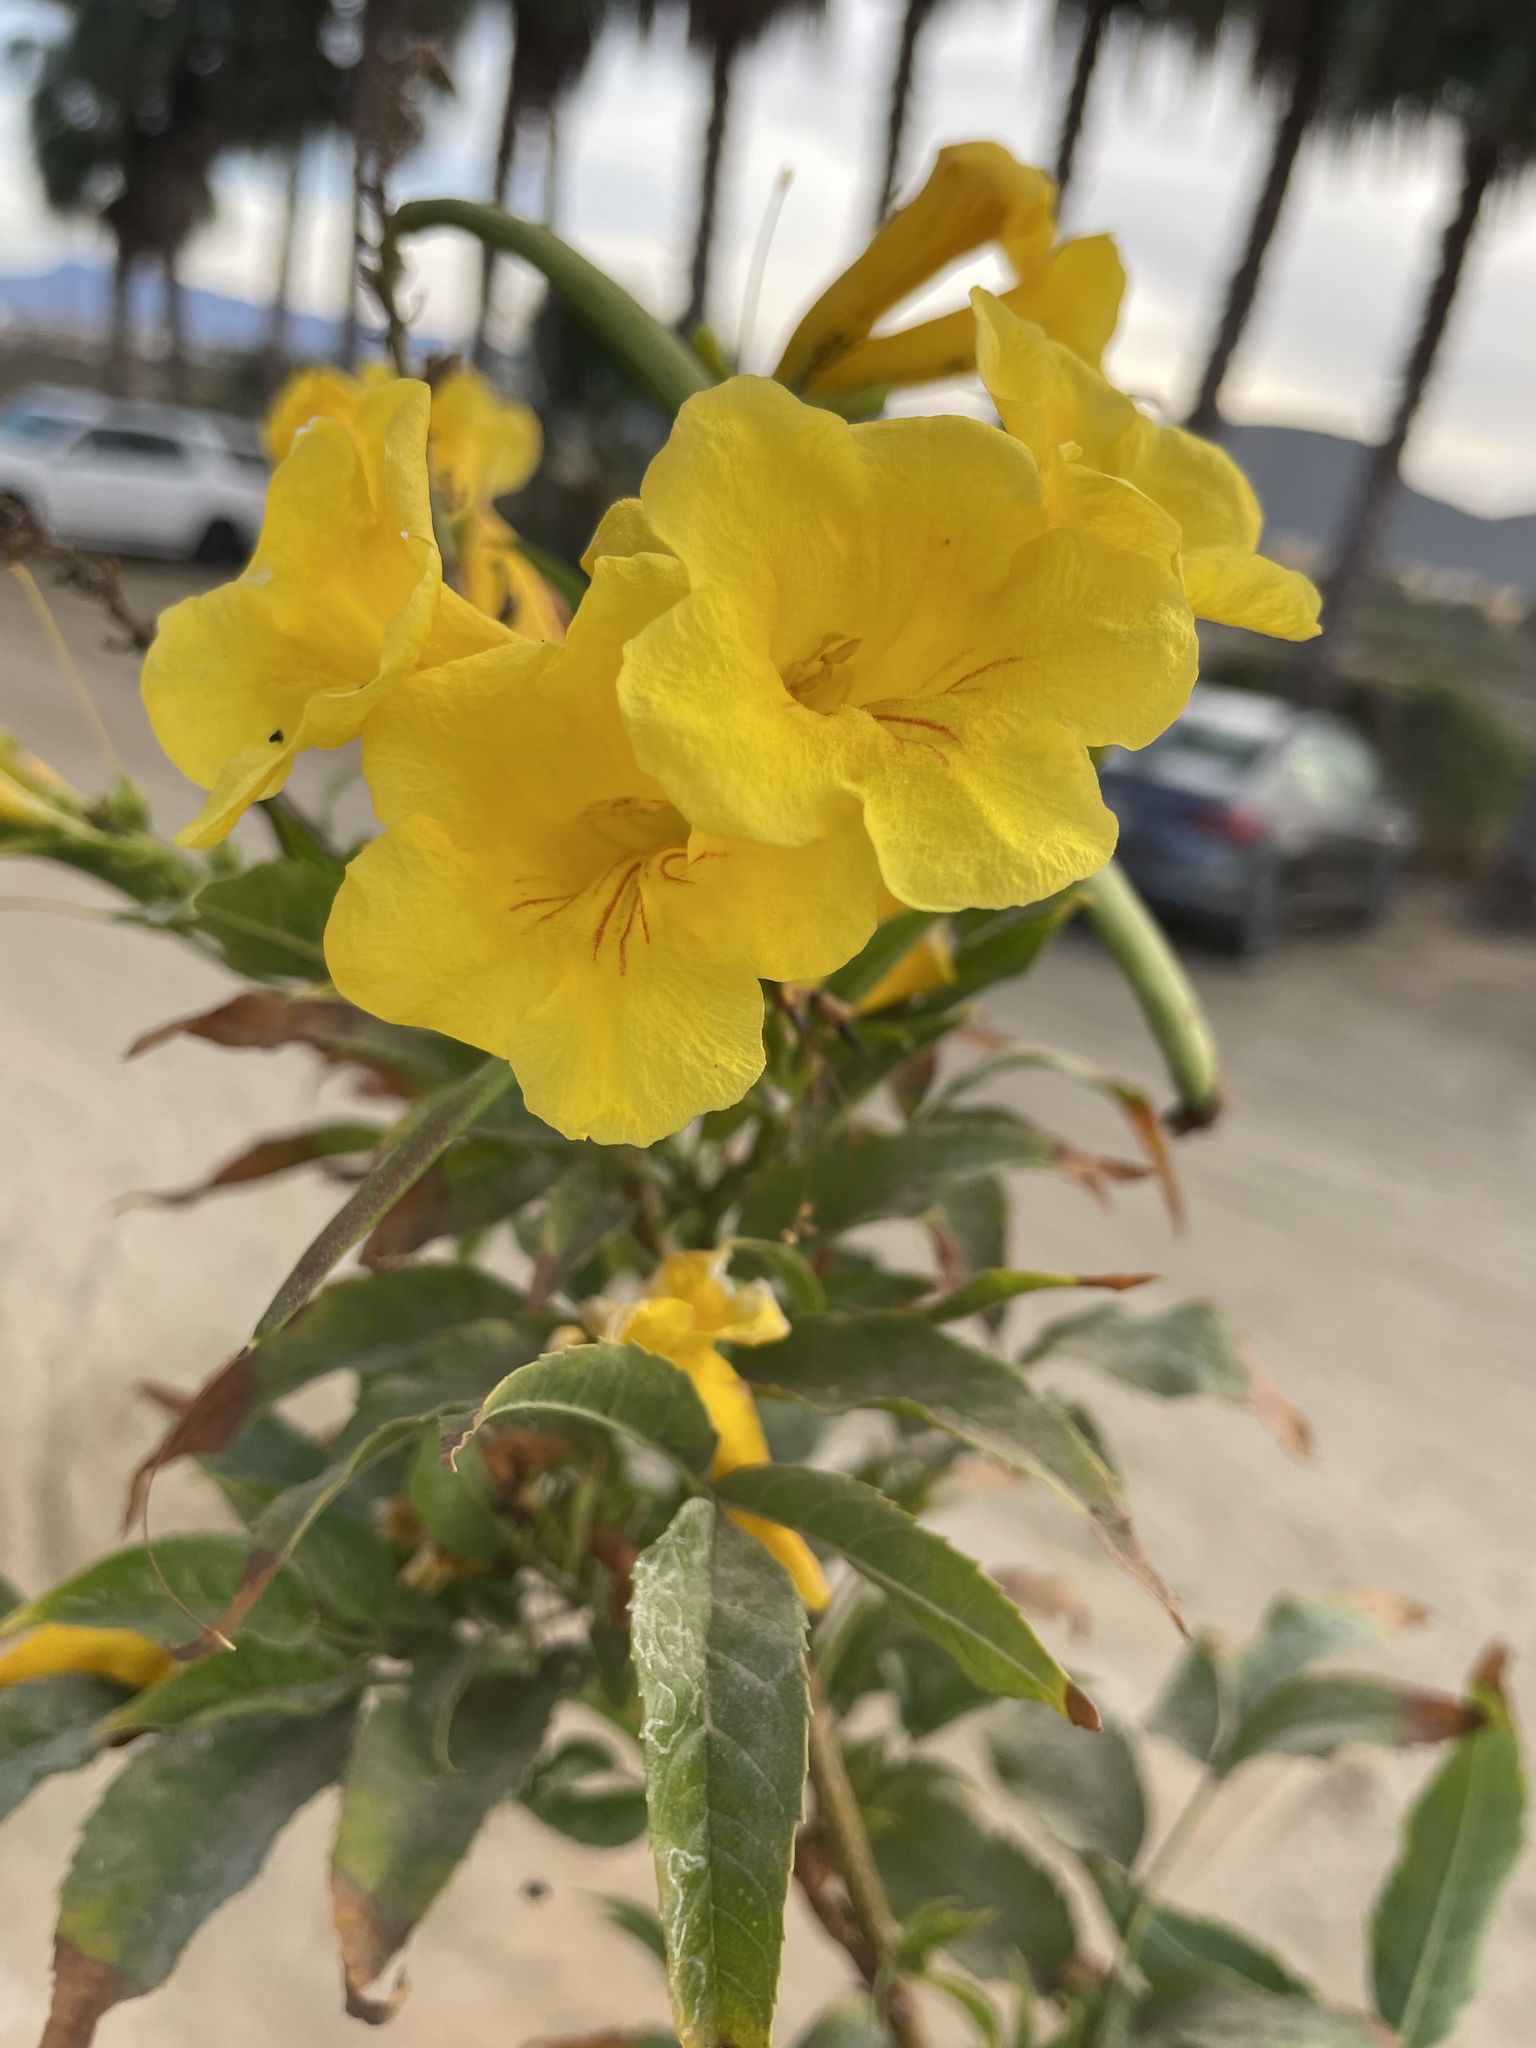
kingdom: Plantae
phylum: Tracheophyta
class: Magnoliopsida
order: Lamiales
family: Bignoniaceae
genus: Tecoma
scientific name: Tecoma stans
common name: Yellow trumpetbush
